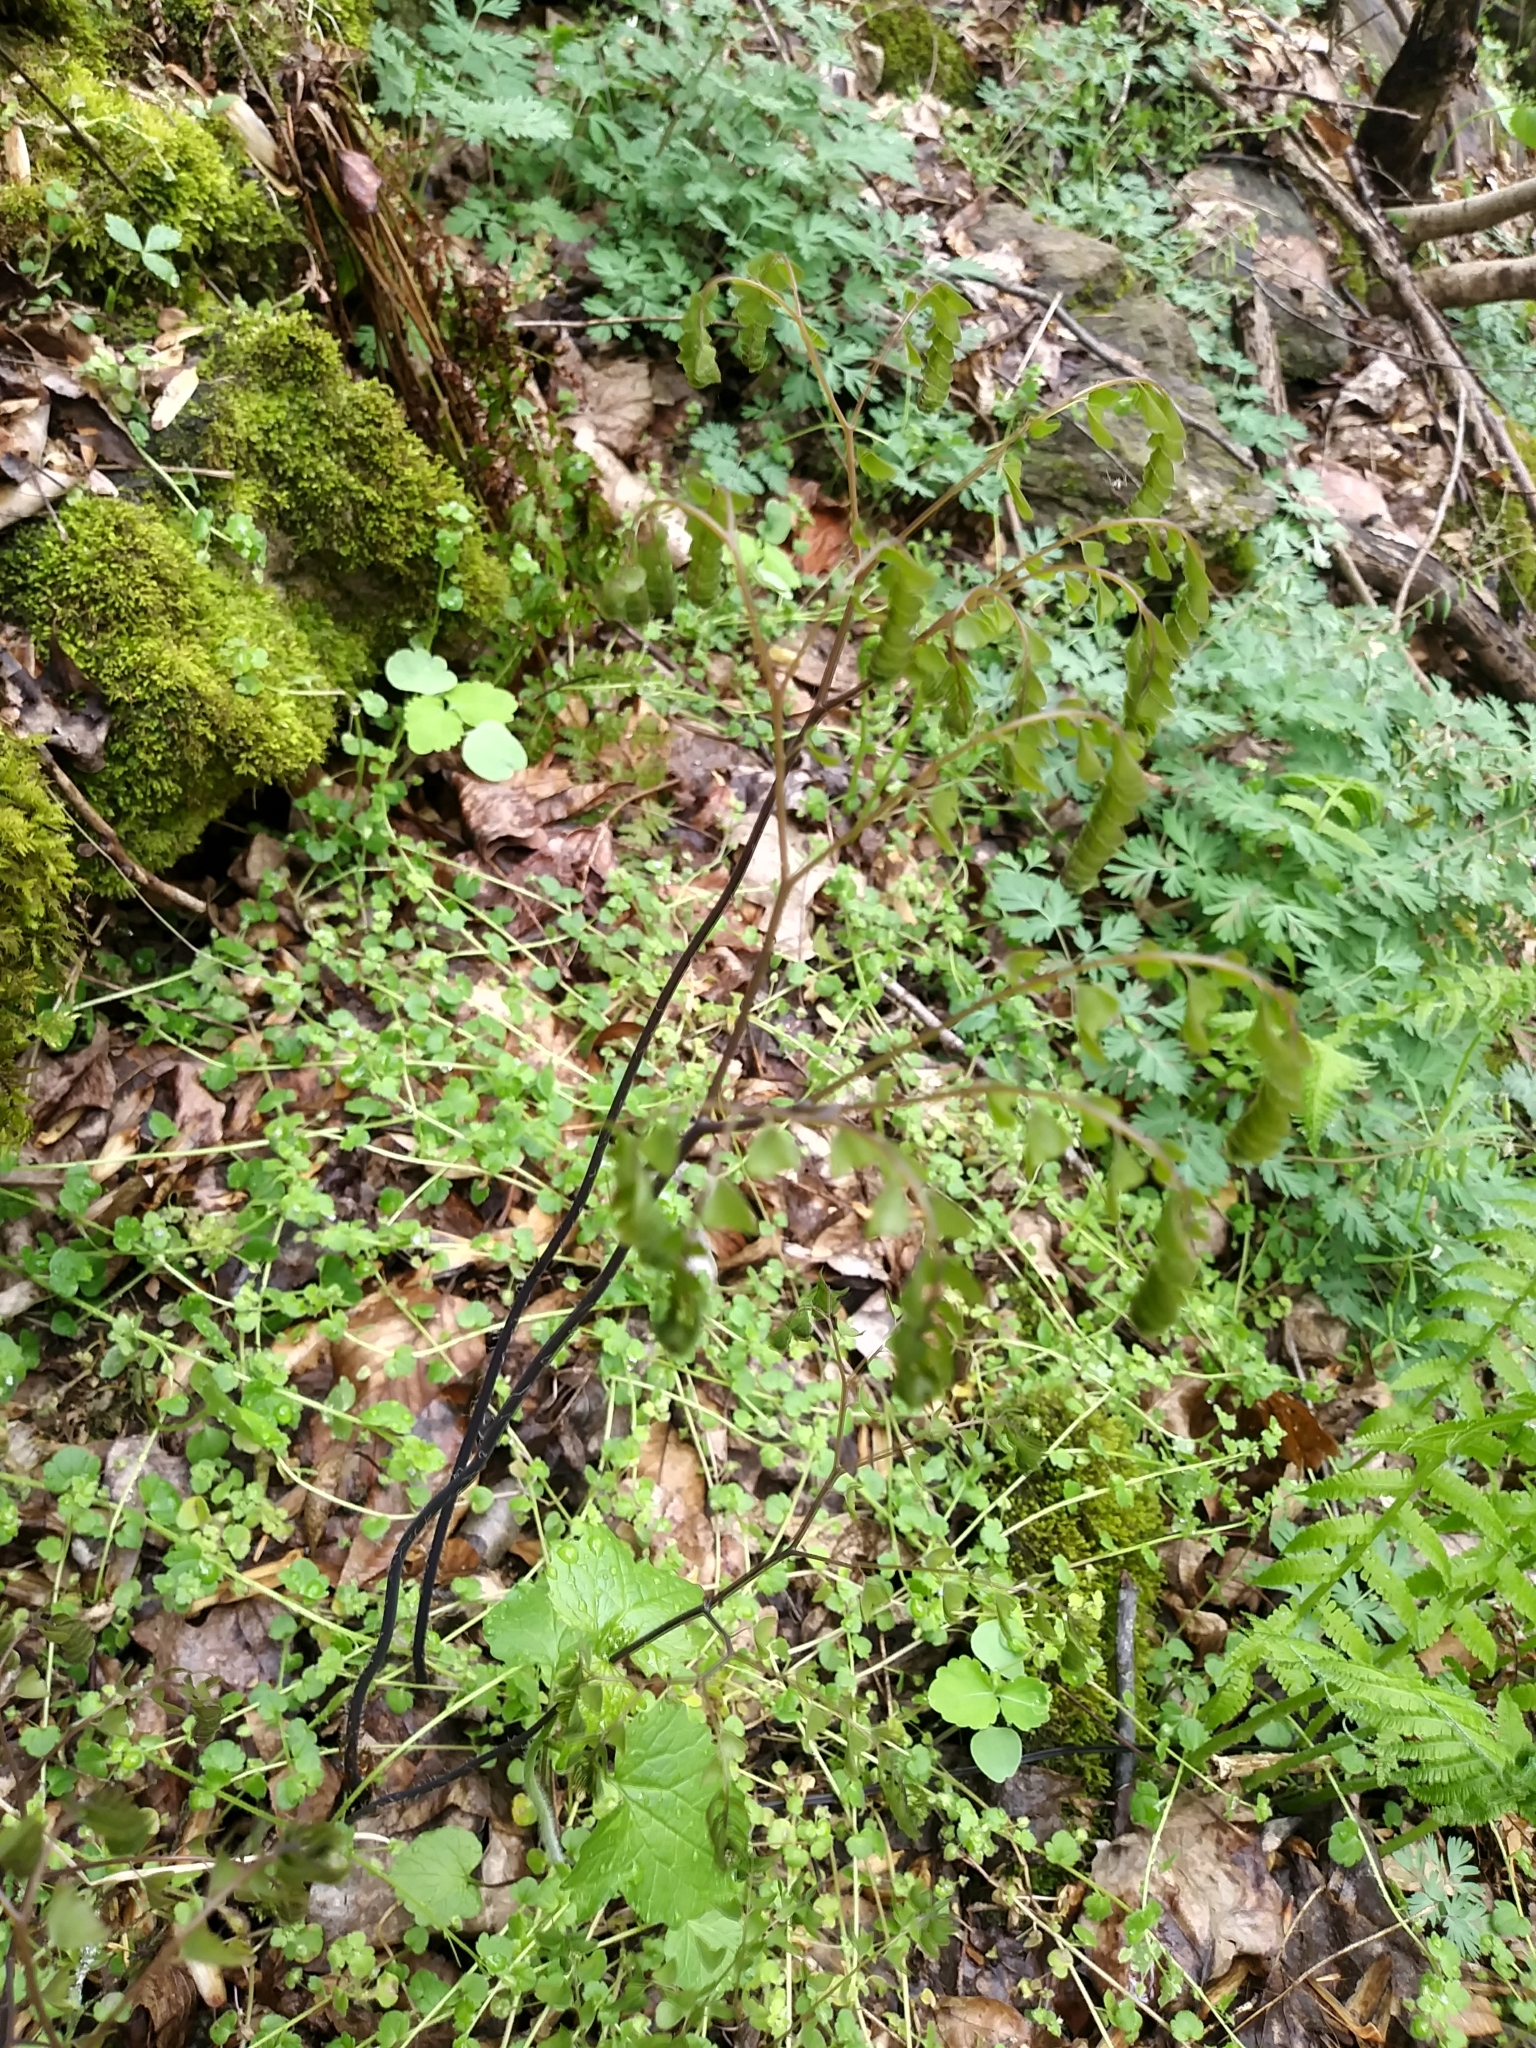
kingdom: Plantae
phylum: Tracheophyta
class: Polypodiopsida
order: Polypodiales
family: Pteridaceae
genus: Adiantum
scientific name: Adiantum pedatum
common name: Five-finger fern
